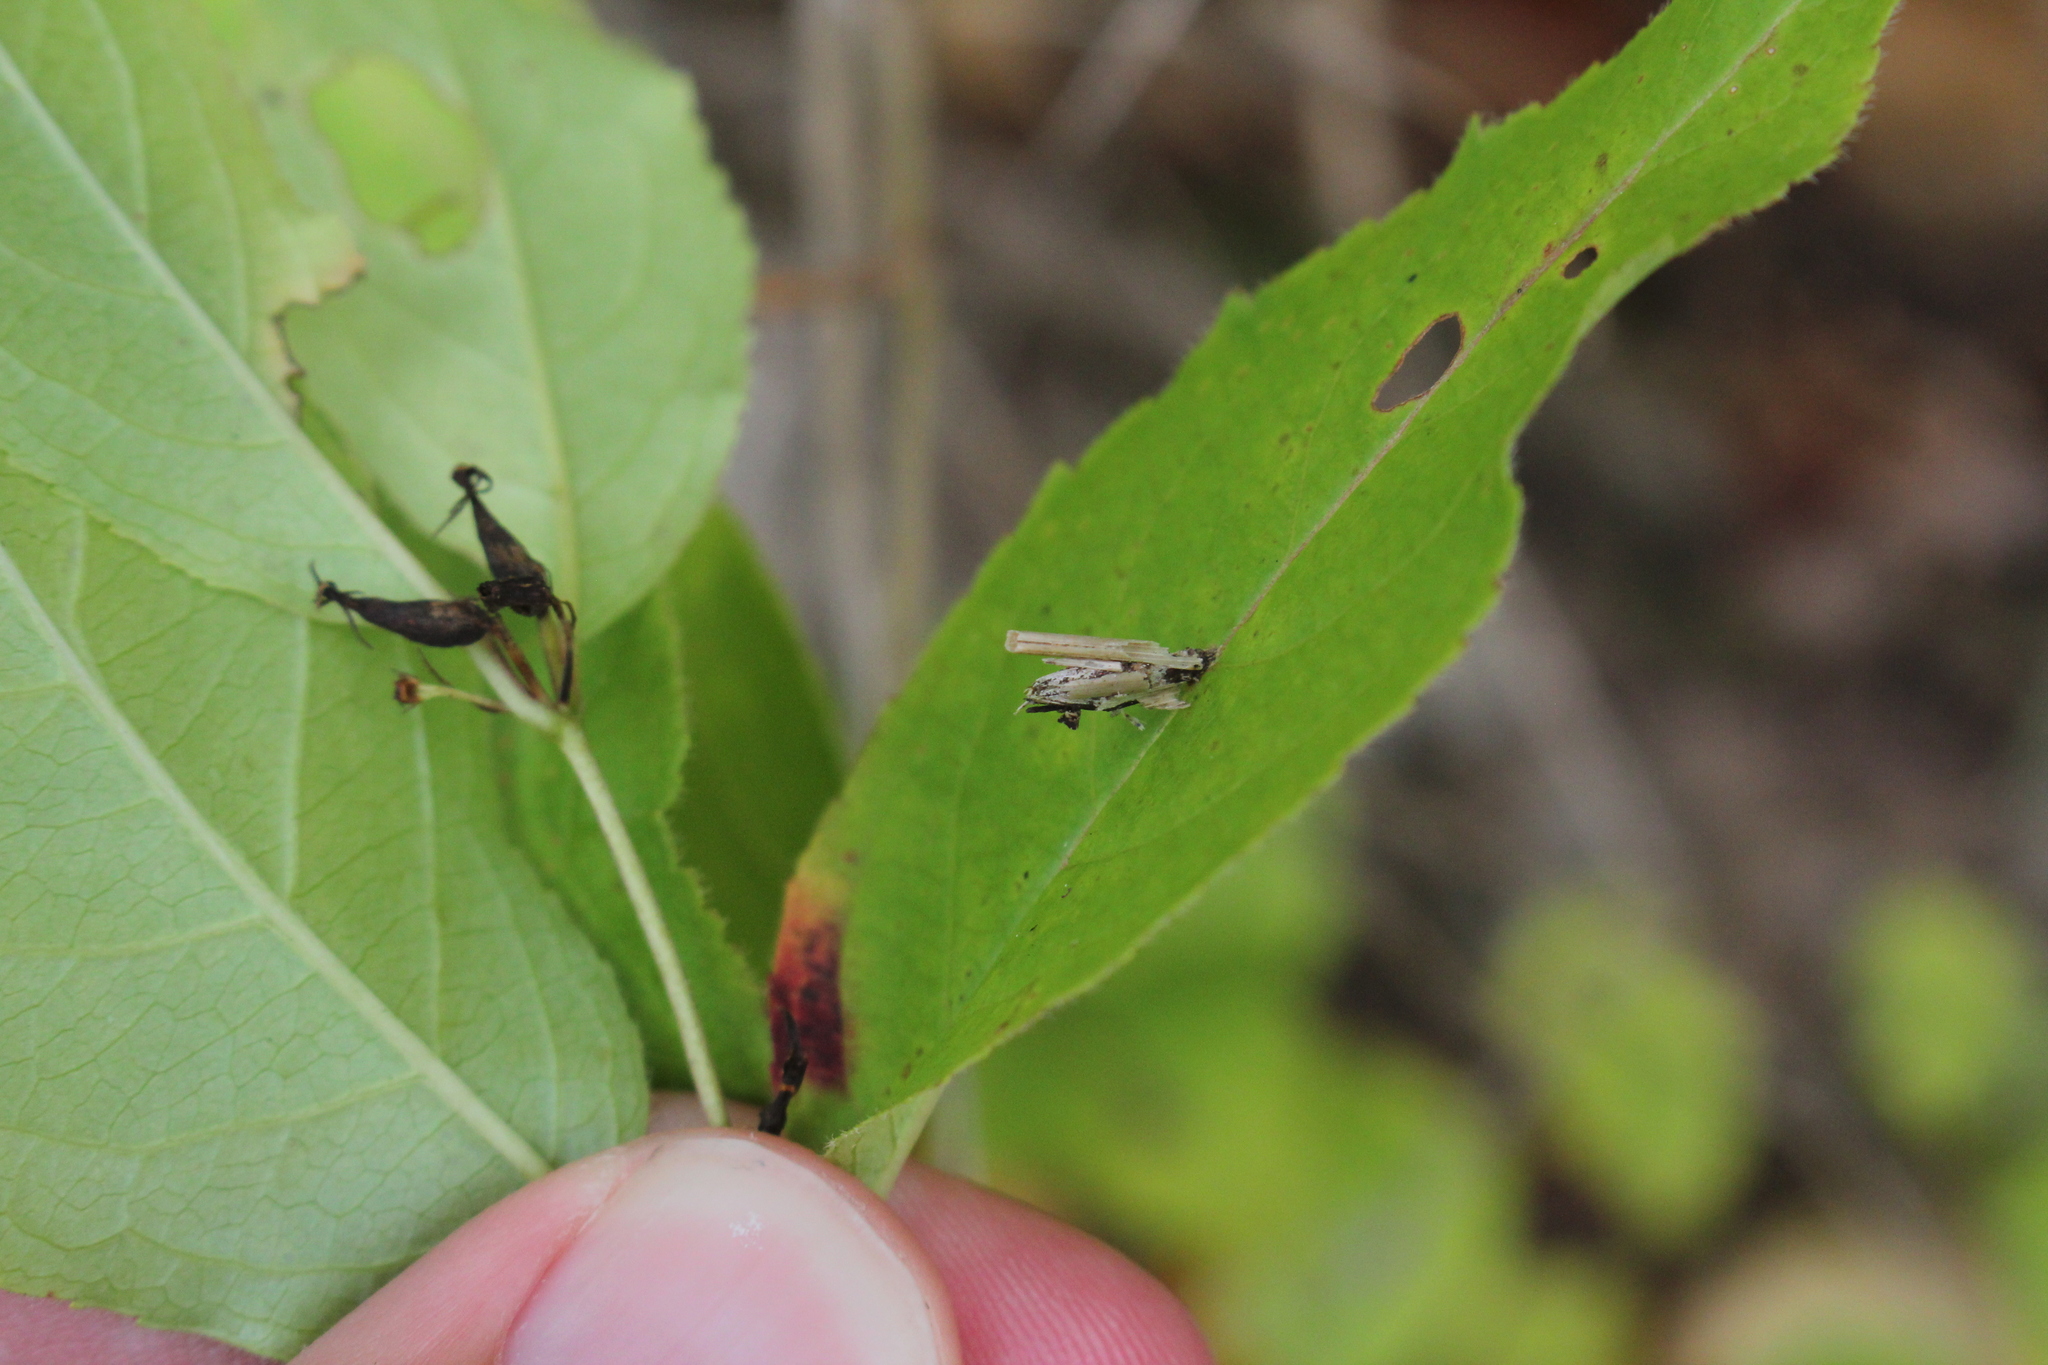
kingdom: Animalia
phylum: Arthropoda
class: Insecta
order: Lepidoptera
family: Psychidae
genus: Psyche
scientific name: Psyche casta
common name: Common sweep
